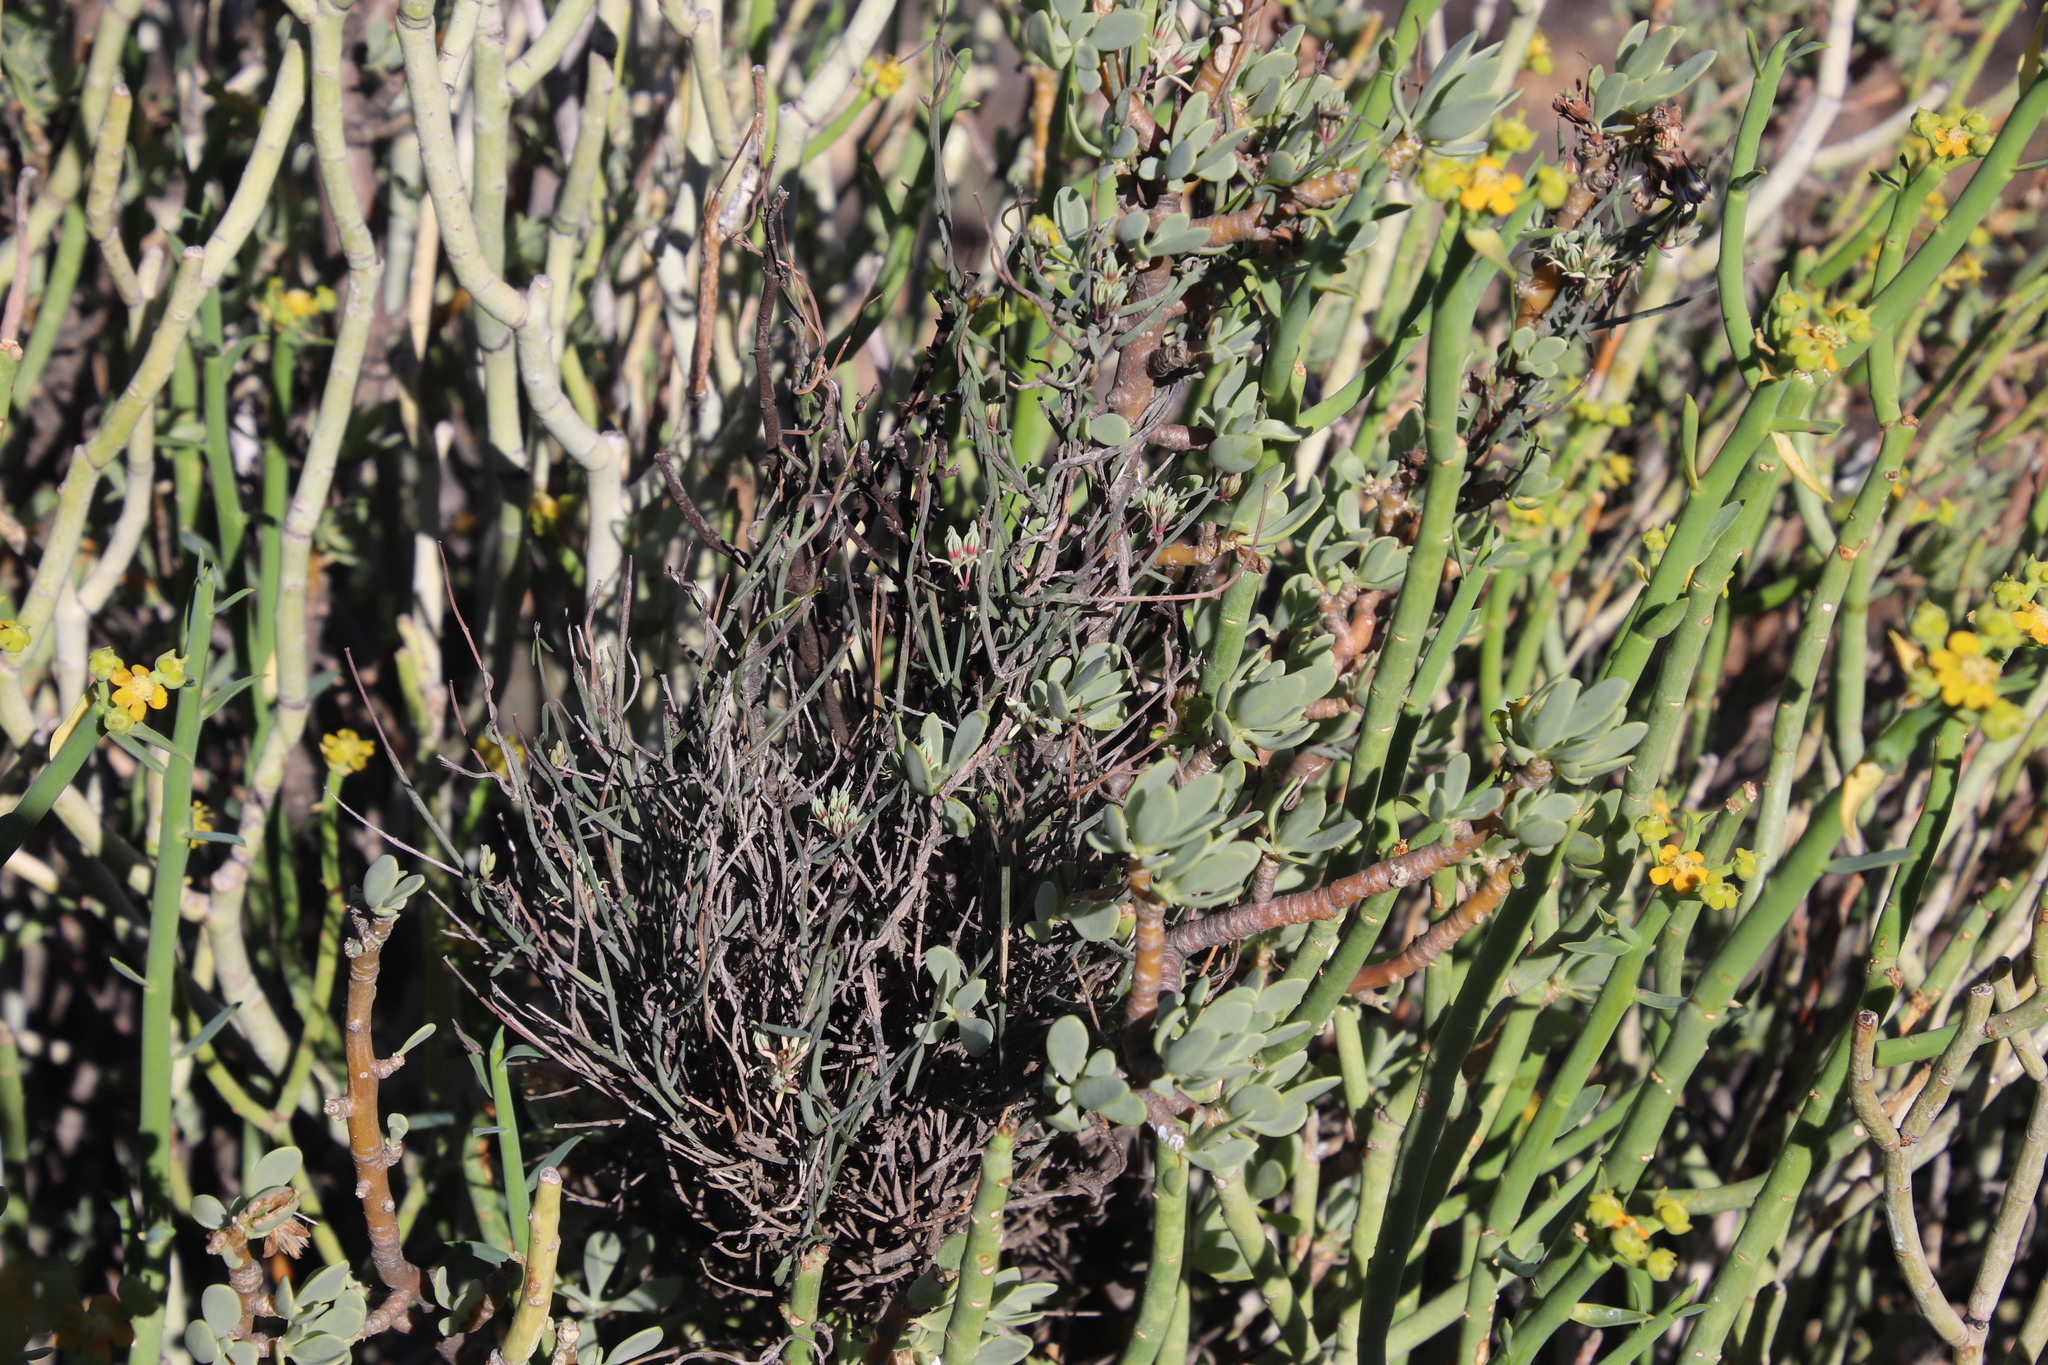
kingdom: Plantae
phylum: Tracheophyta
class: Magnoliopsida
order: Gentianales
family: Apocynaceae
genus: Microloma
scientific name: Microloma incanum
